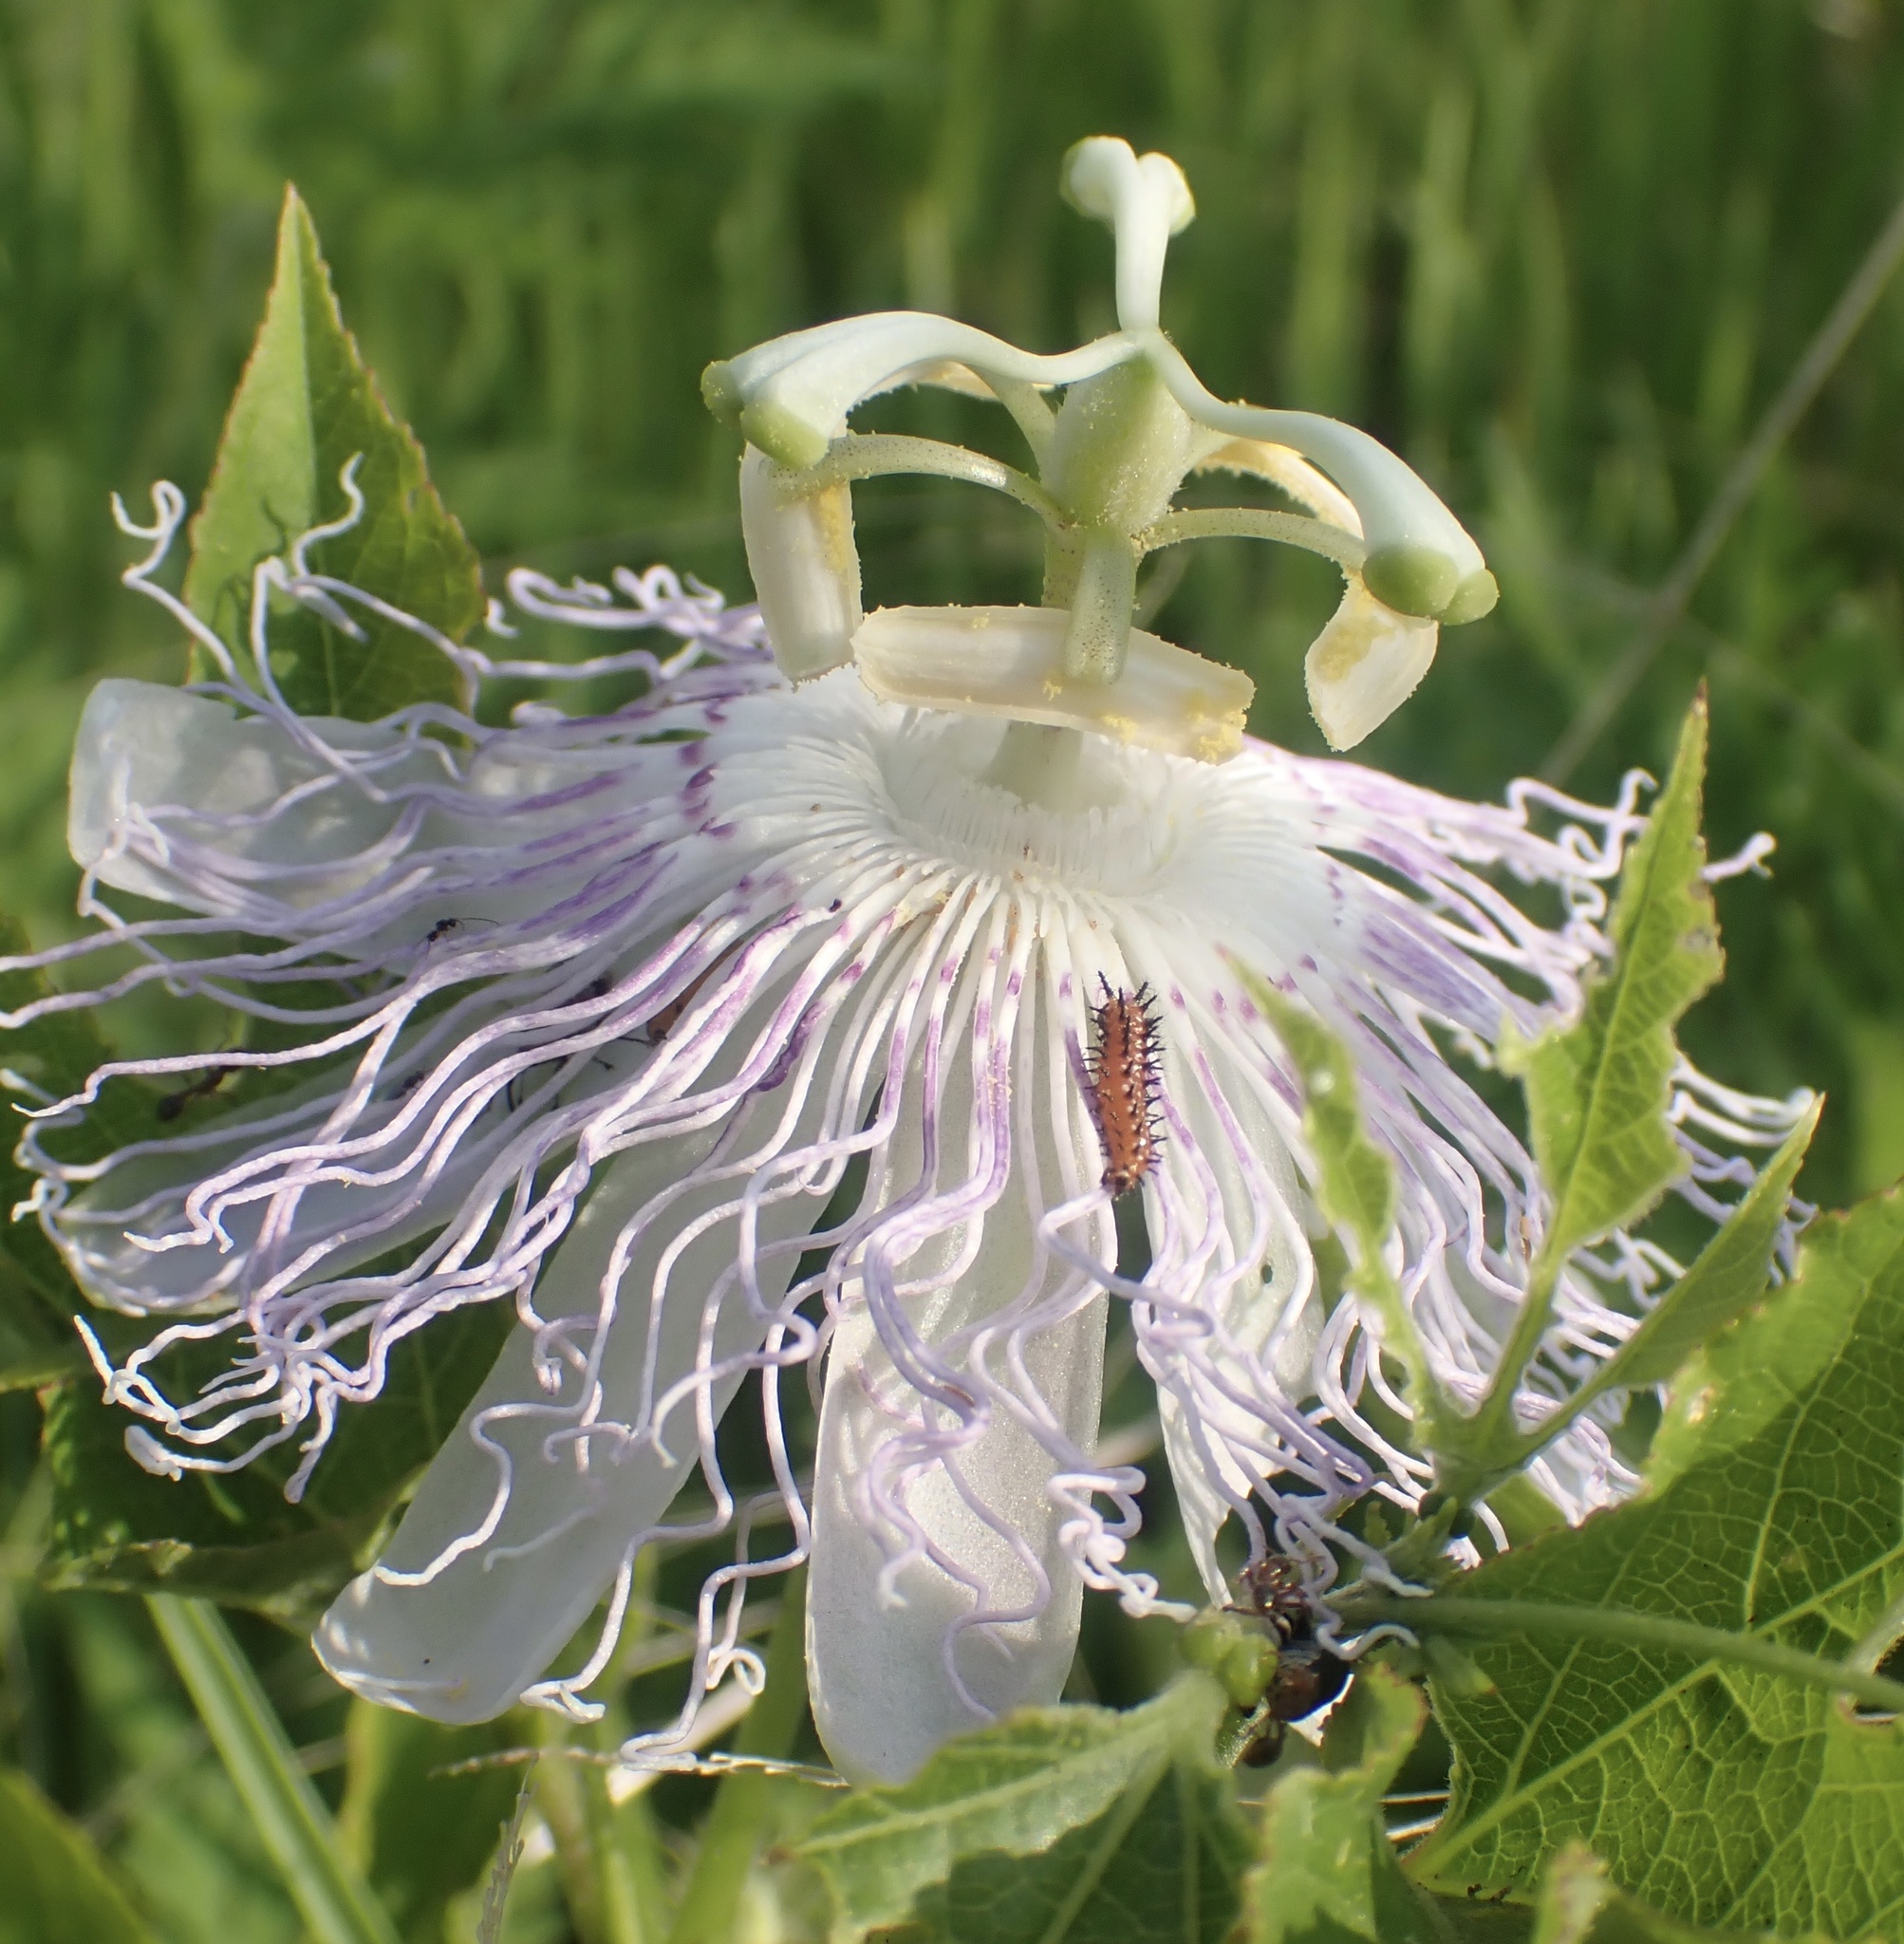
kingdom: Animalia
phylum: Arthropoda
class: Insecta
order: Lepidoptera
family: Nymphalidae
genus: Dione
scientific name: Dione vanillae
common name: Gulf fritillary
